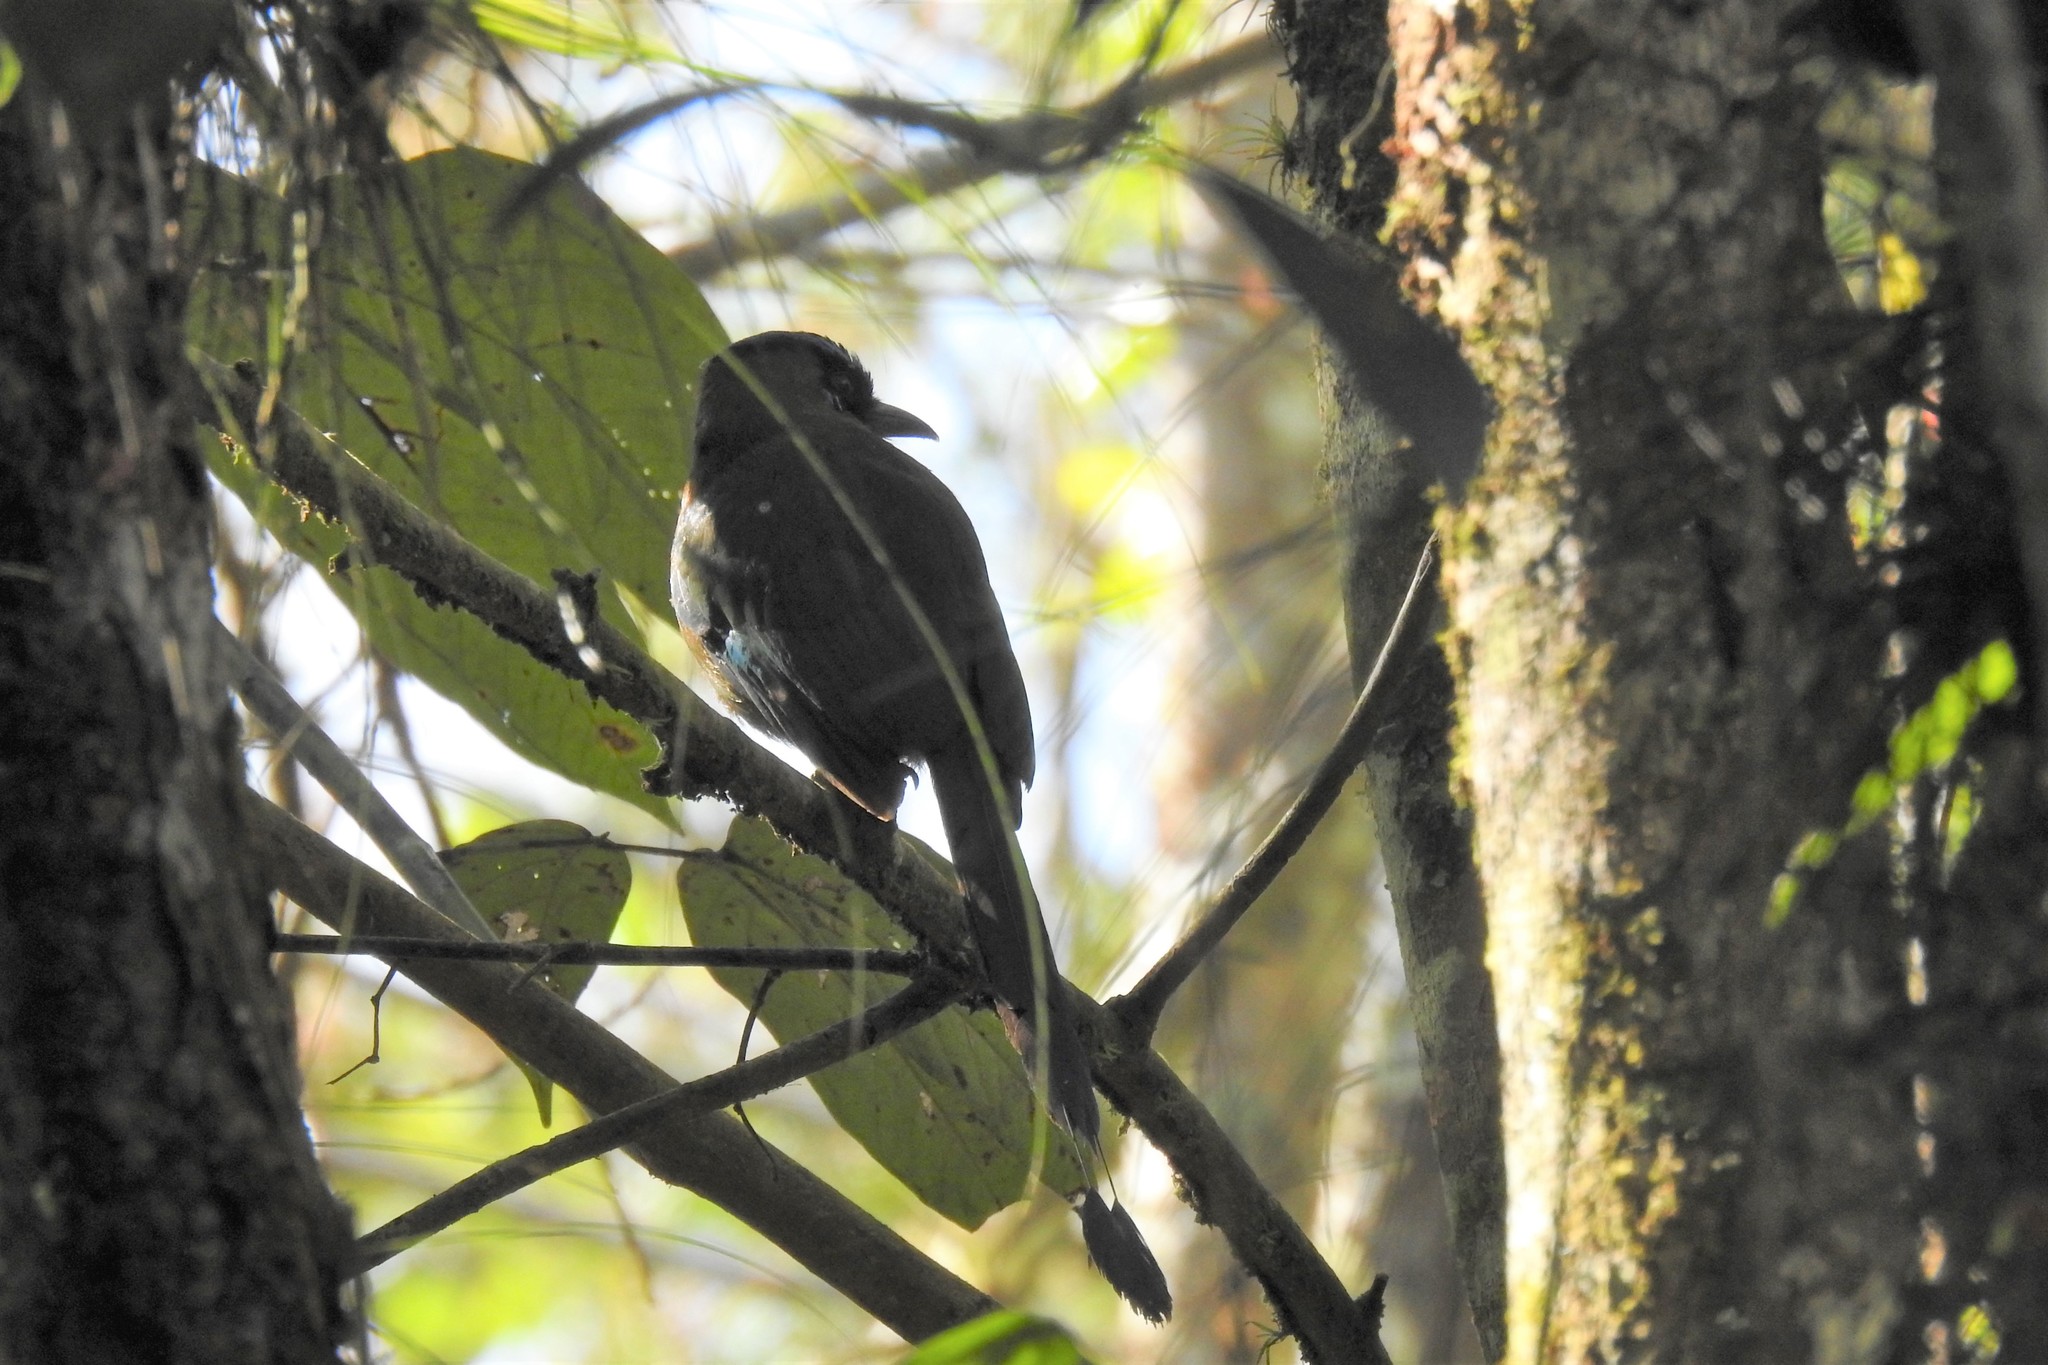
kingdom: Animalia
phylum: Chordata
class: Aves
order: Coraciiformes
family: Momotidae
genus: Momotus
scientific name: Momotus lessonii
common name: Lesson's motmot
